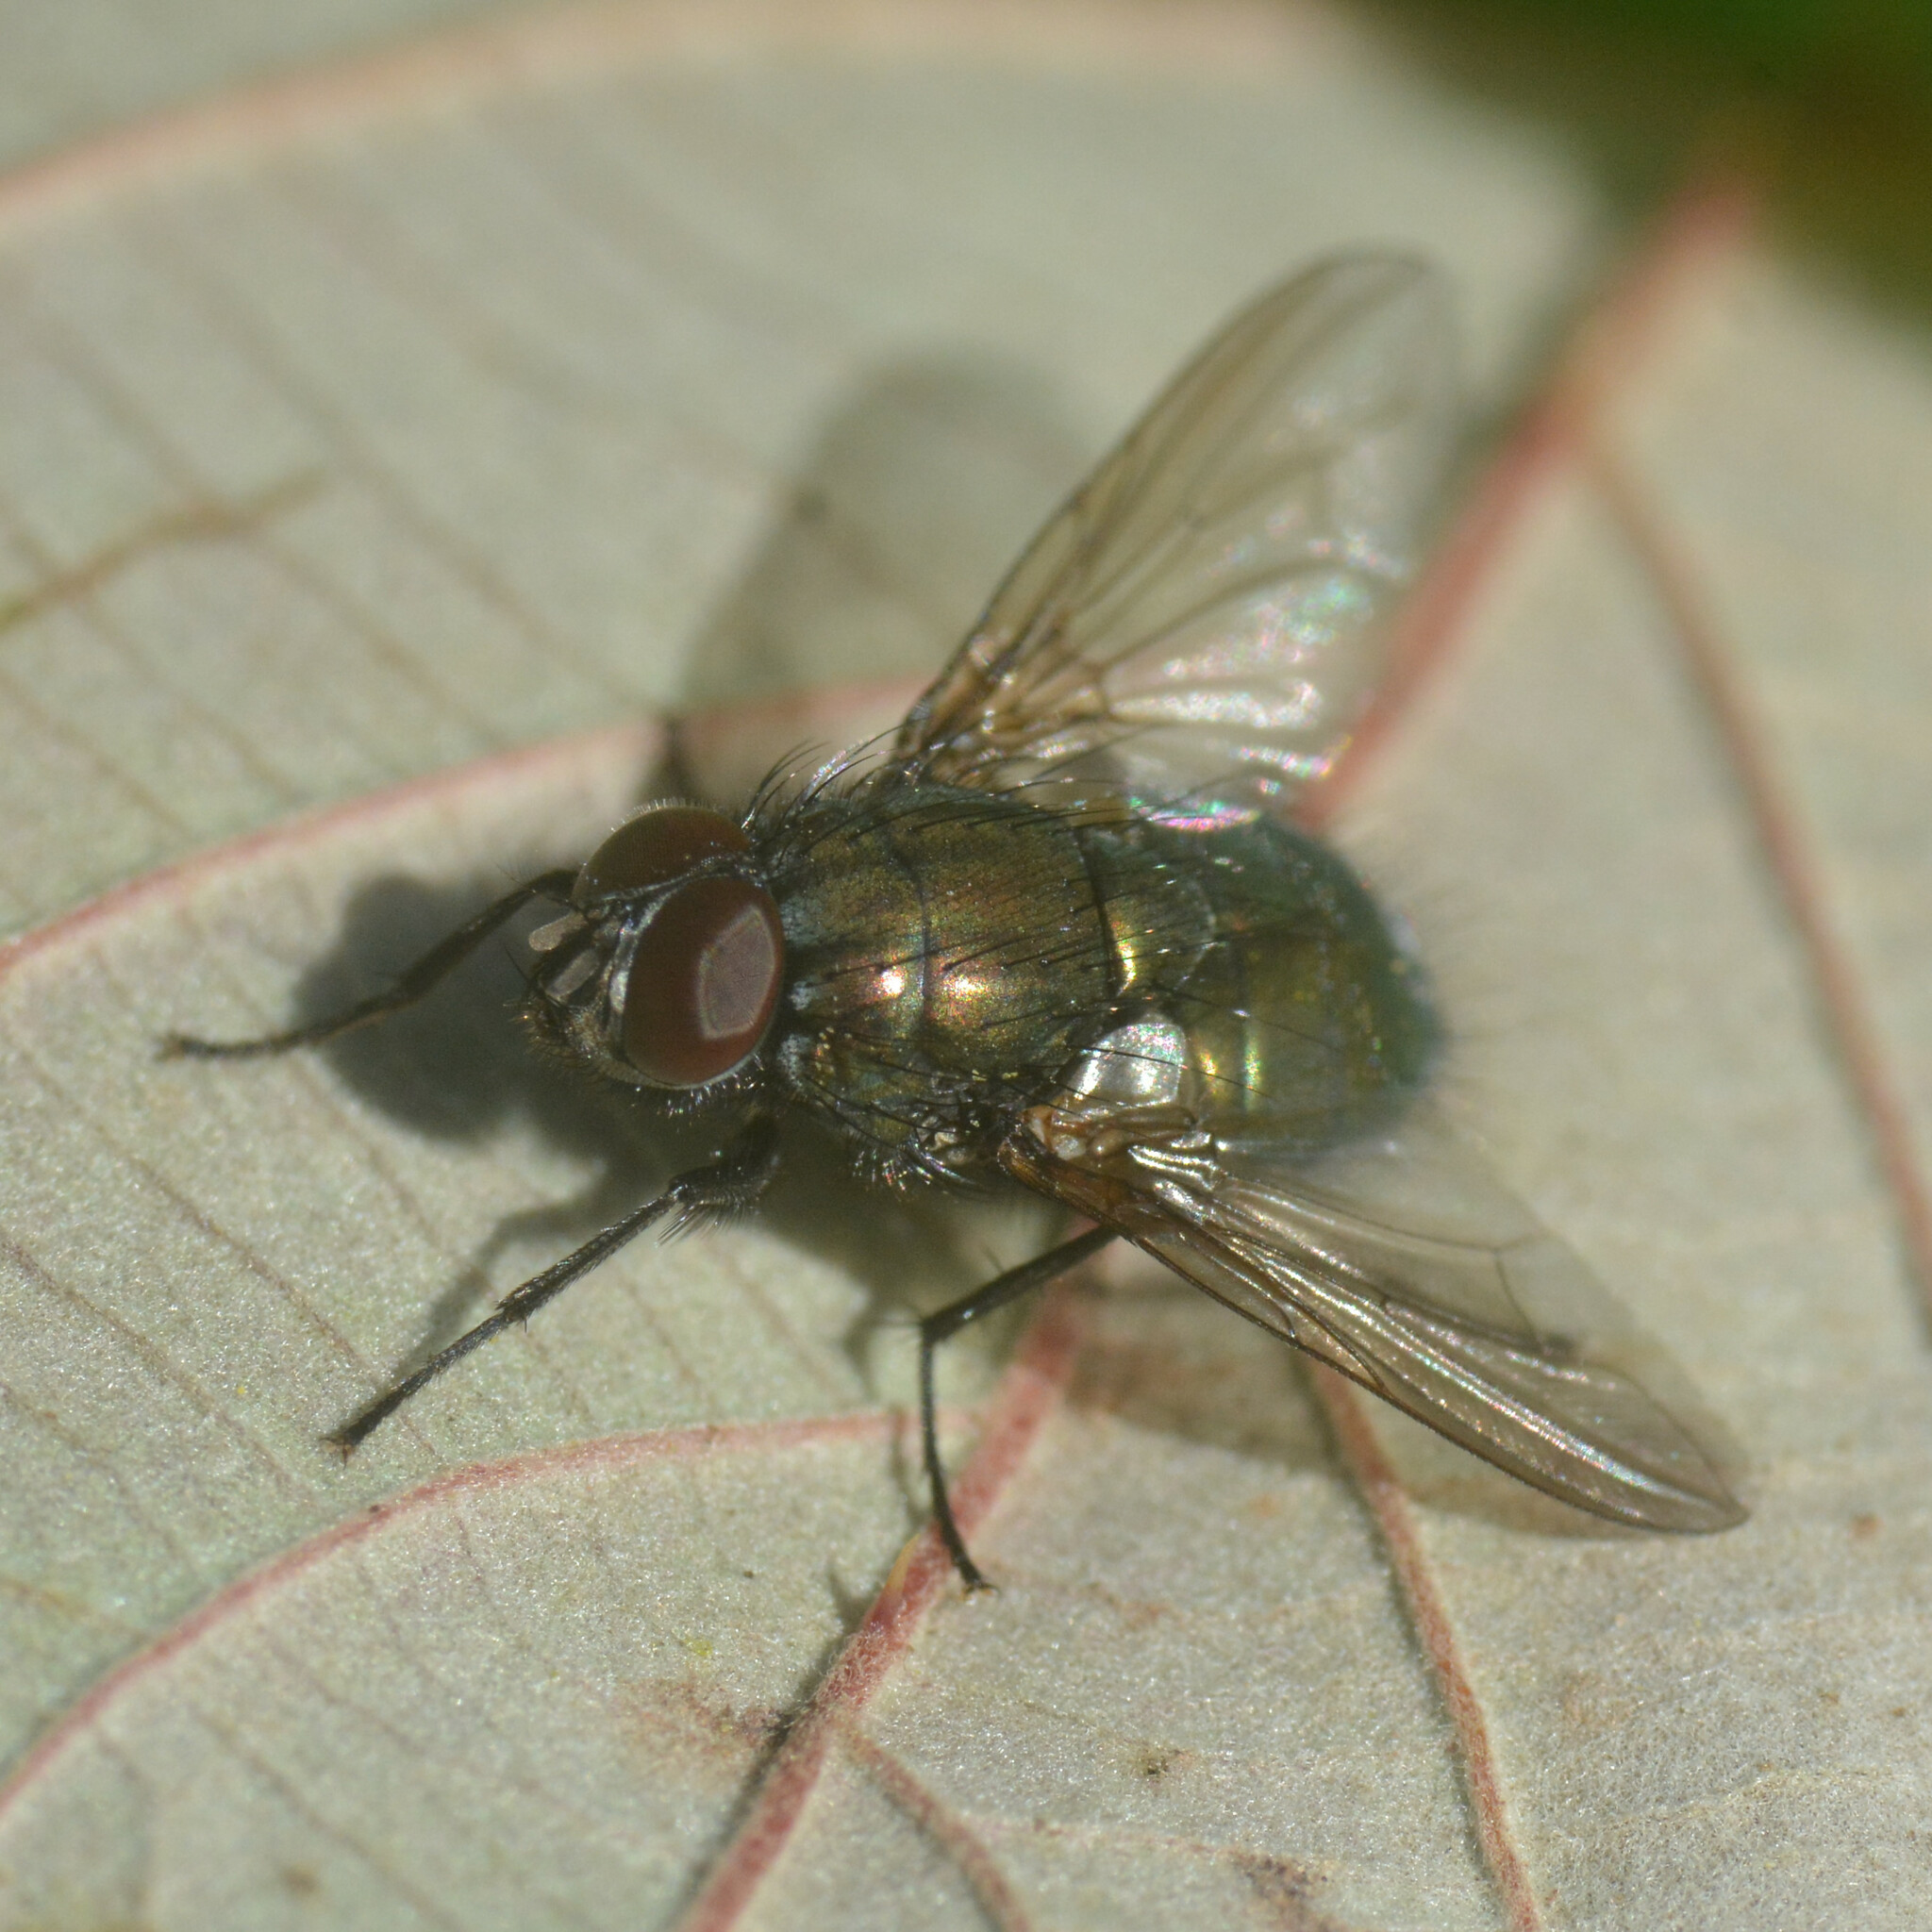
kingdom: Animalia
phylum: Arthropoda
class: Insecta
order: Diptera
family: Muscidae
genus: Dasyphora
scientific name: Dasyphora cyanella
